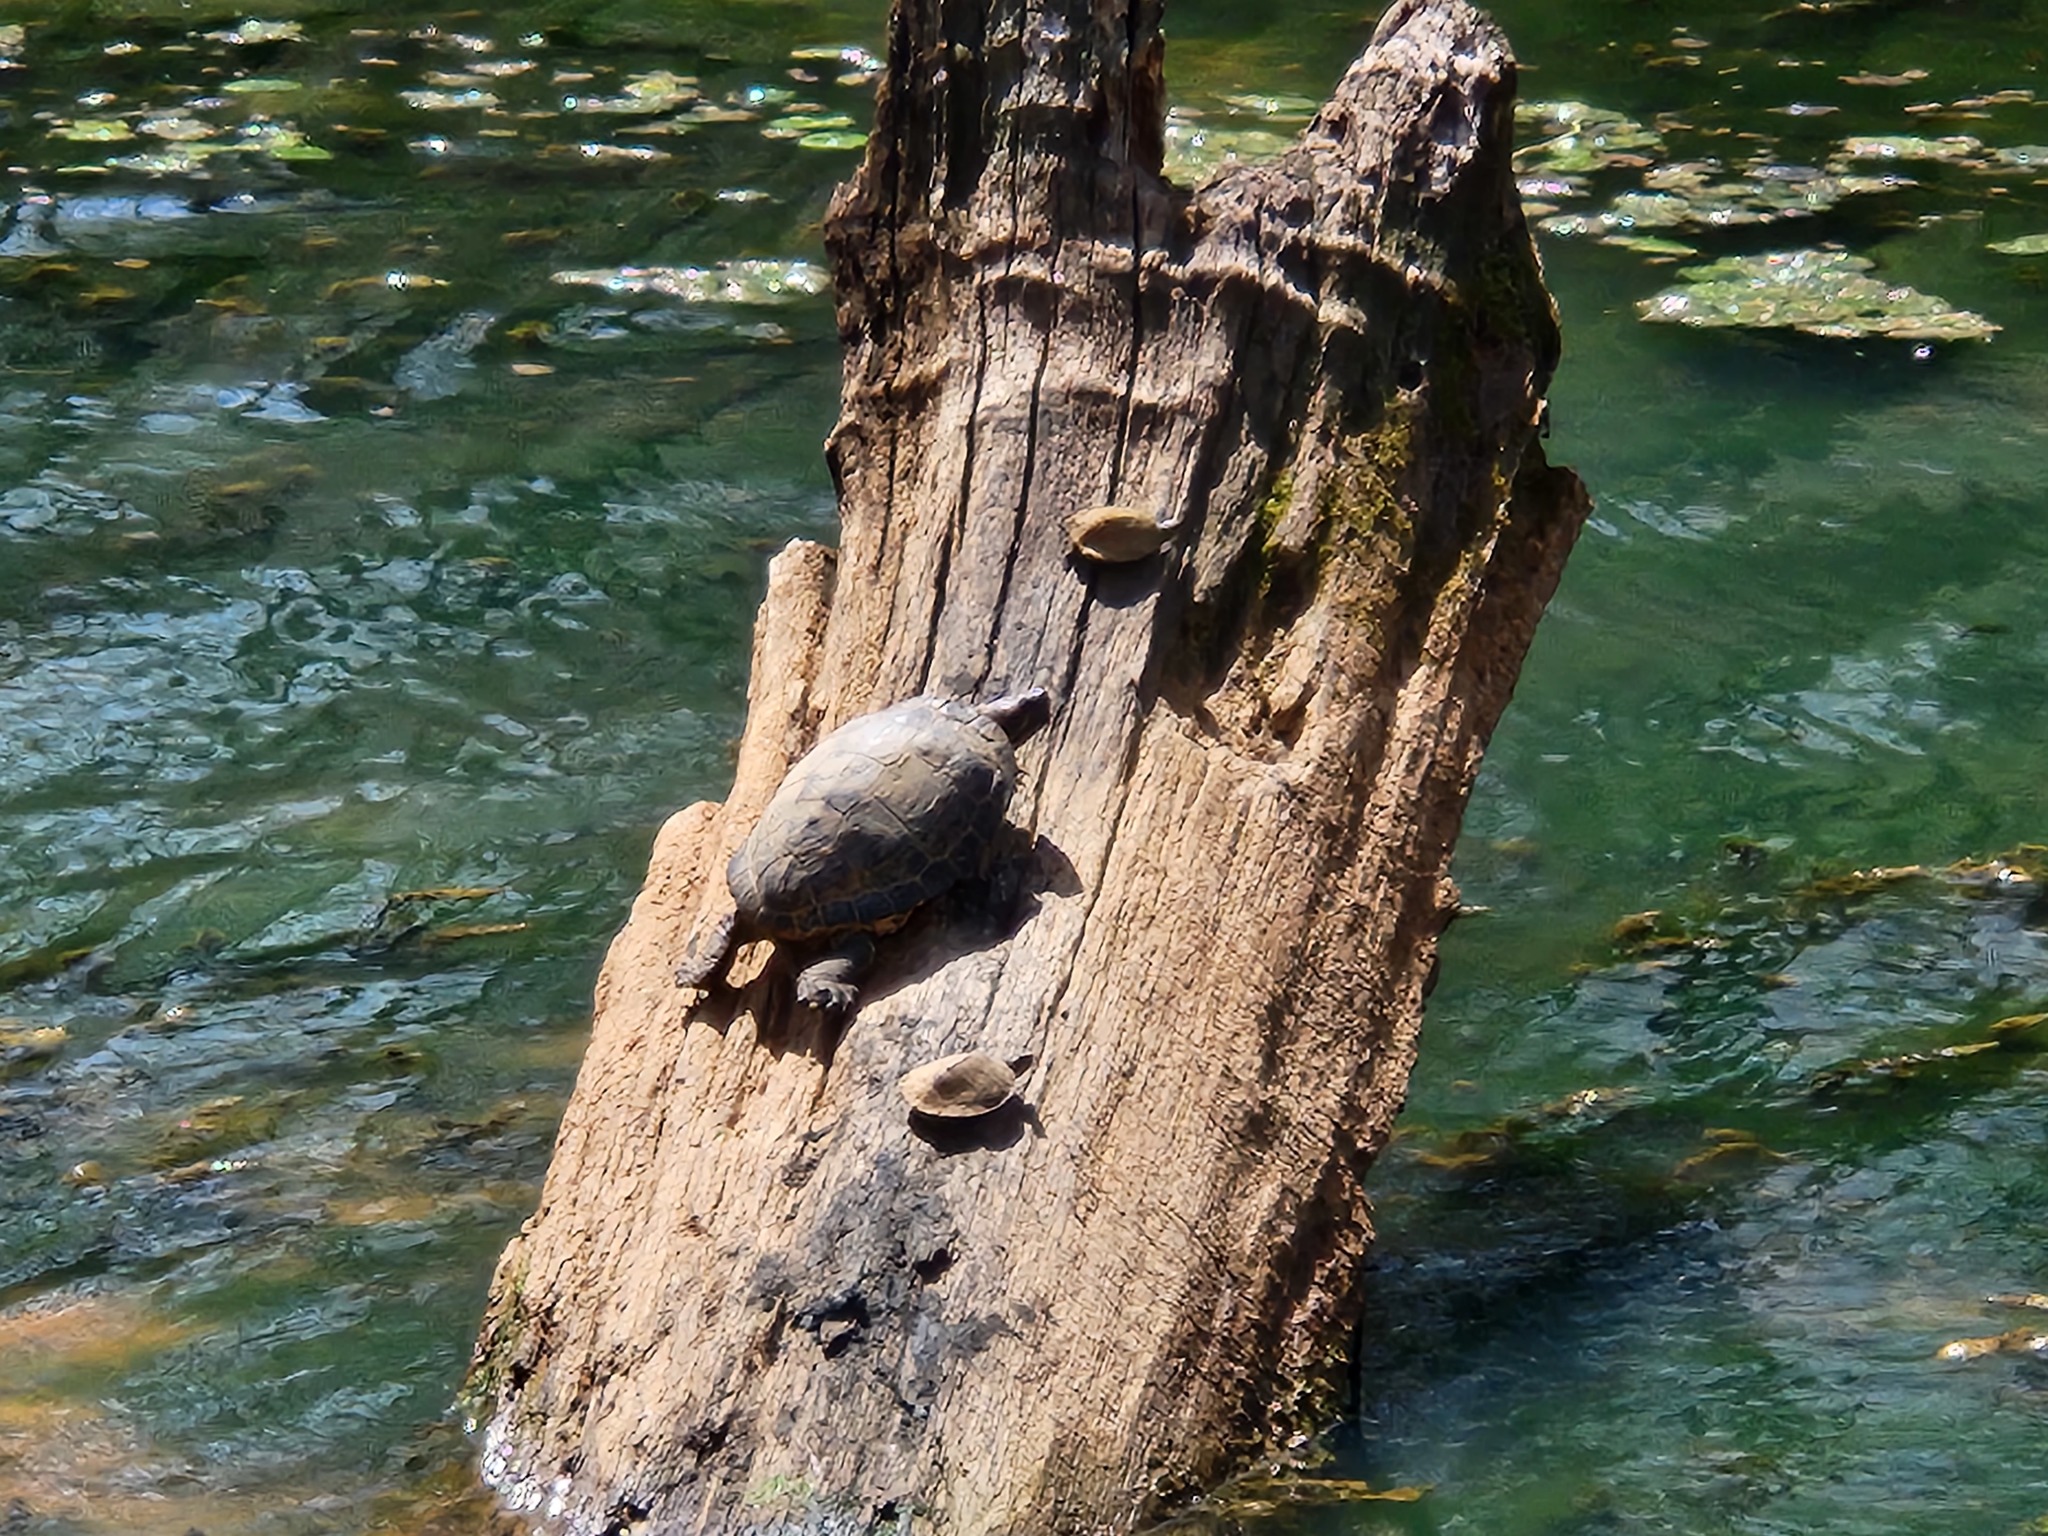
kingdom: Animalia
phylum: Chordata
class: Testudines
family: Emydidae
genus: Trachemys
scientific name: Trachemys scripta
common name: Slider
